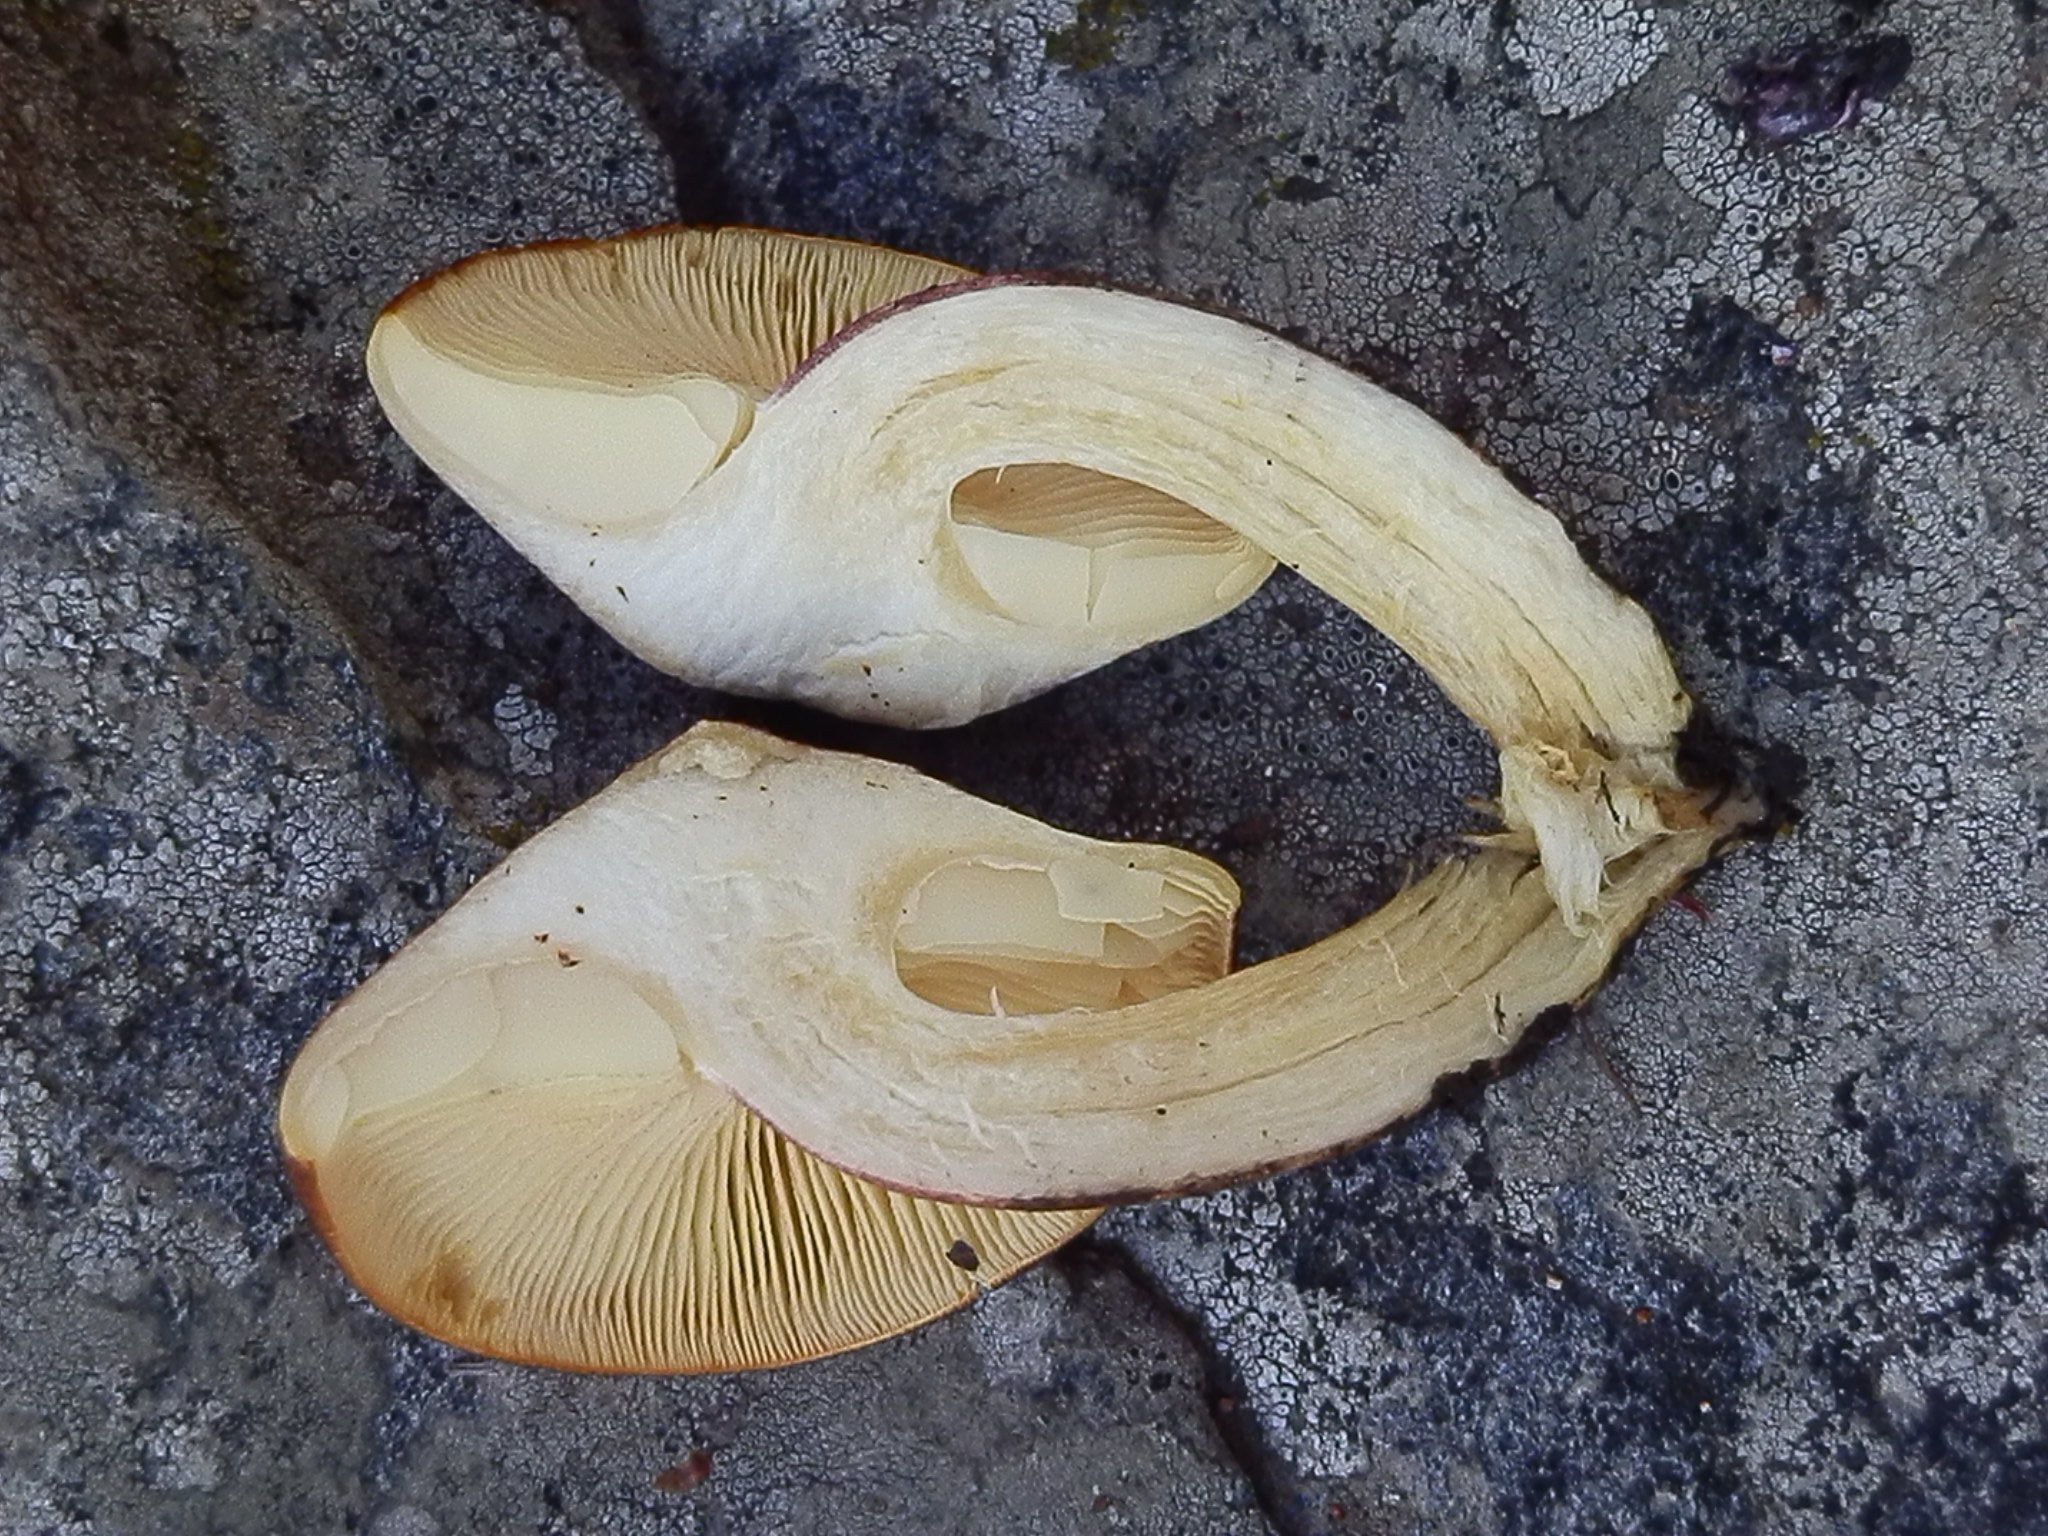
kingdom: Fungi
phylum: Basidiomycota
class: Agaricomycetes
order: Agaricales
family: Tricholomataceae
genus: Tricholomopsis
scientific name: Tricholomopsis rutilans
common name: Plums and custard
